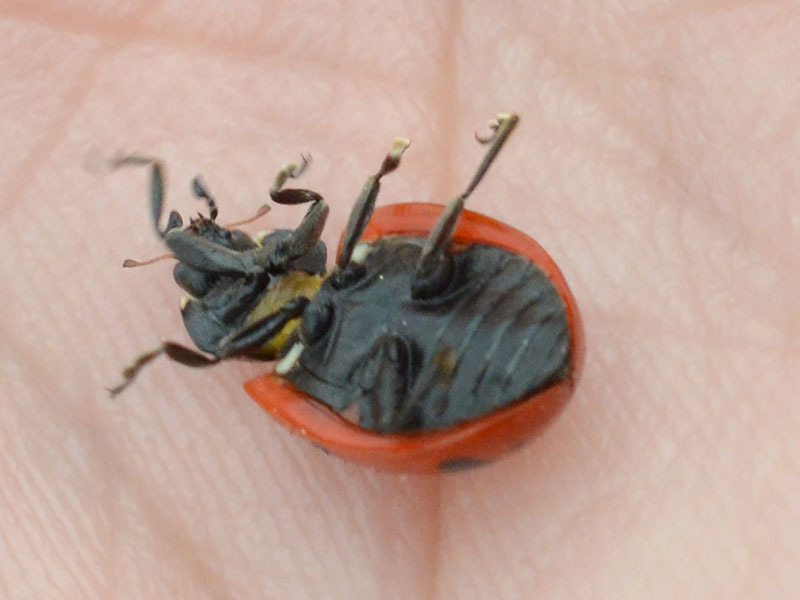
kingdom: Animalia
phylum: Arthropoda
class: Insecta
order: Coleoptera
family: Coccinellidae
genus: Coccinella
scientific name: Coccinella septempunctata
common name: Sevenspotted lady beetle
